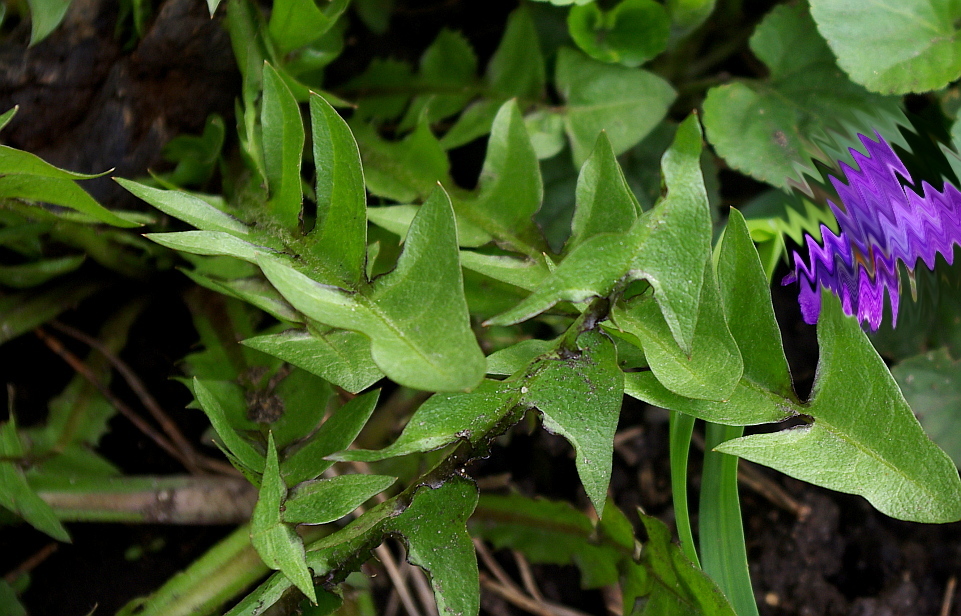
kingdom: Plantae
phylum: Tracheophyta
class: Magnoliopsida
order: Asterales
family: Asteraceae
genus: Taraxacum
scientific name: Taraxacum officinale
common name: Common dandelion
